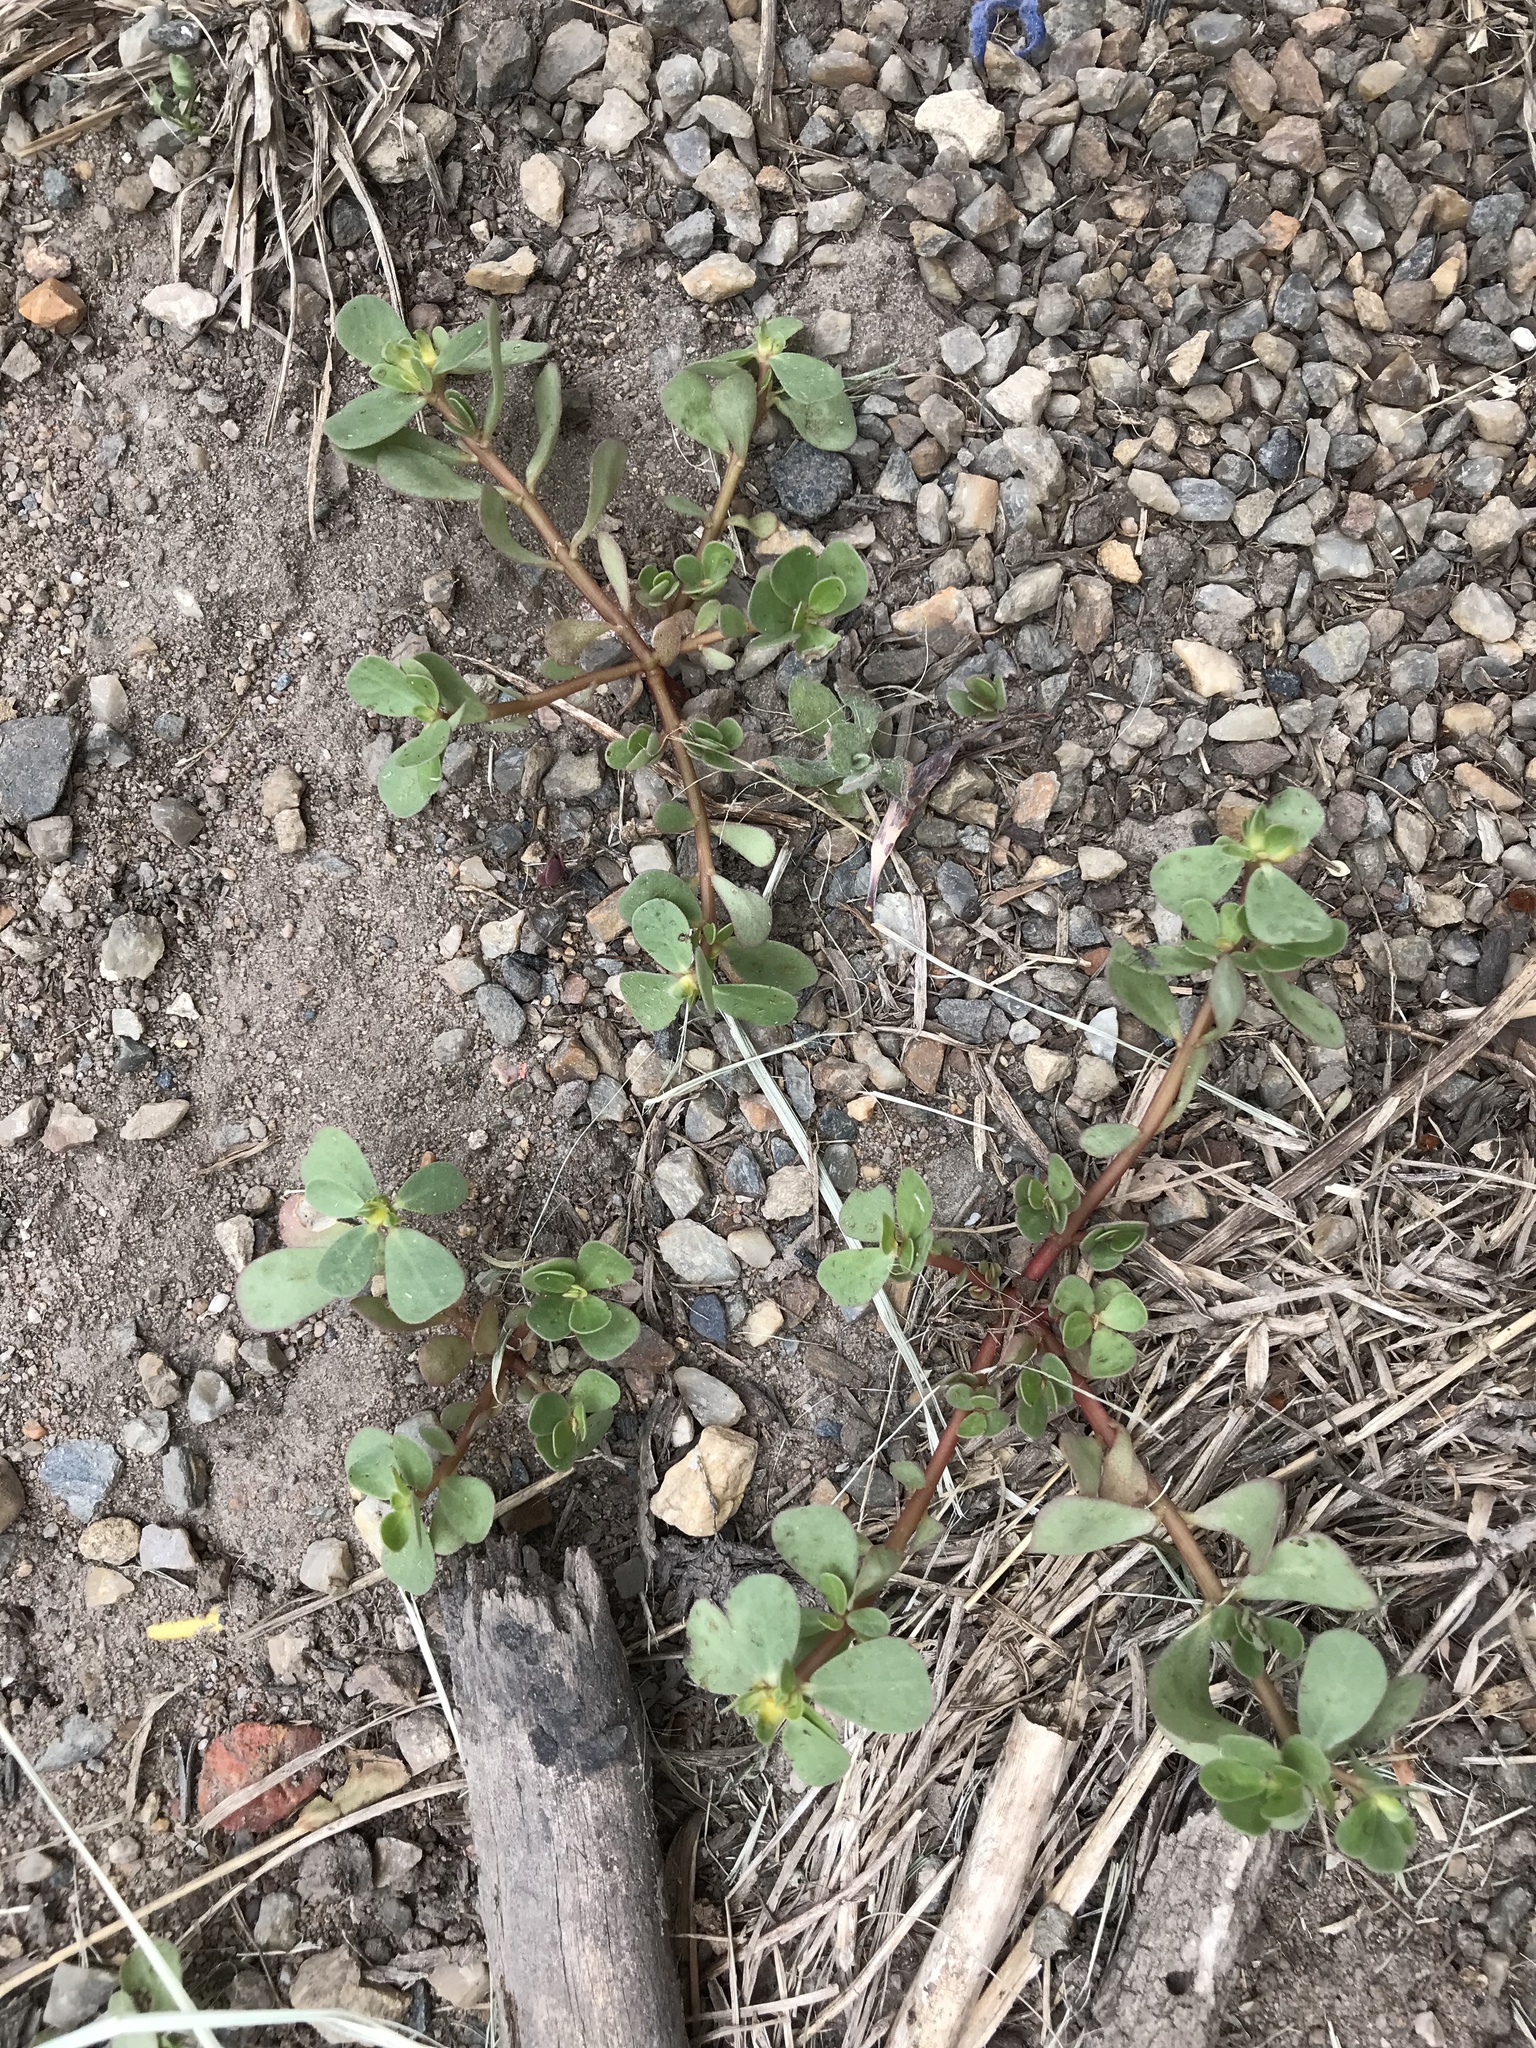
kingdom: Plantae
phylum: Tracheophyta
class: Magnoliopsida
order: Caryophyllales
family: Portulacaceae
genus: Portulaca
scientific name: Portulaca oleracea
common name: Common purslane
